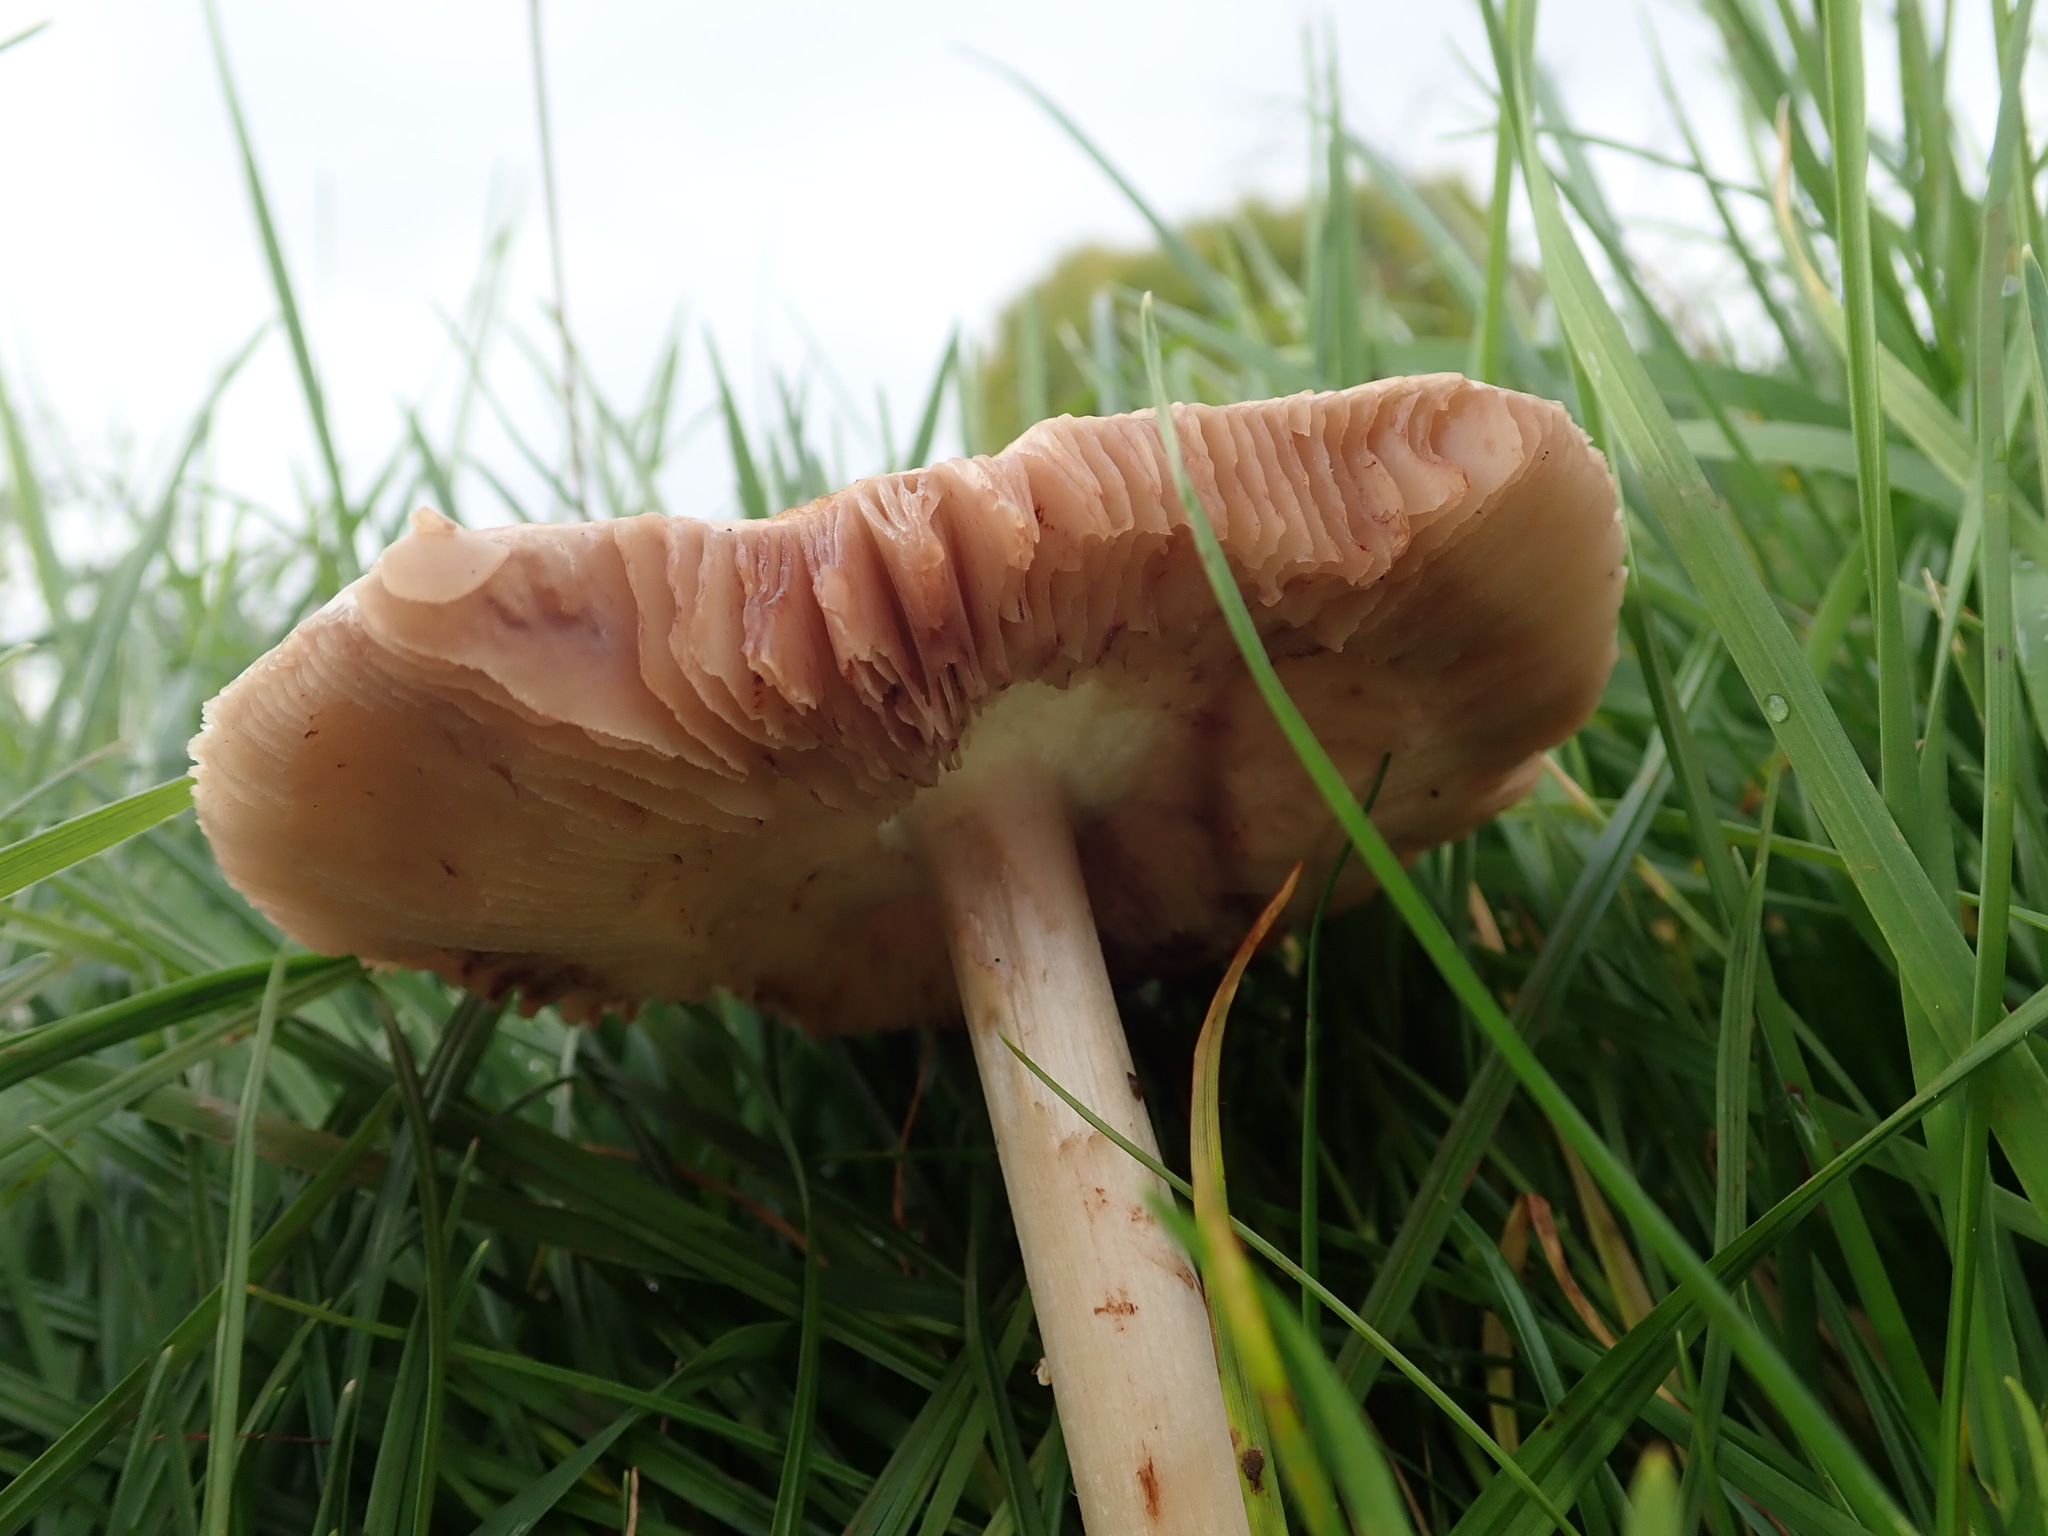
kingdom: Fungi
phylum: Basidiomycota
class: Agaricomycetes
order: Agaricales
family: Pluteaceae
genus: Volvopluteus
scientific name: Volvopluteus gloiocephalus
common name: Stubble rosegill
